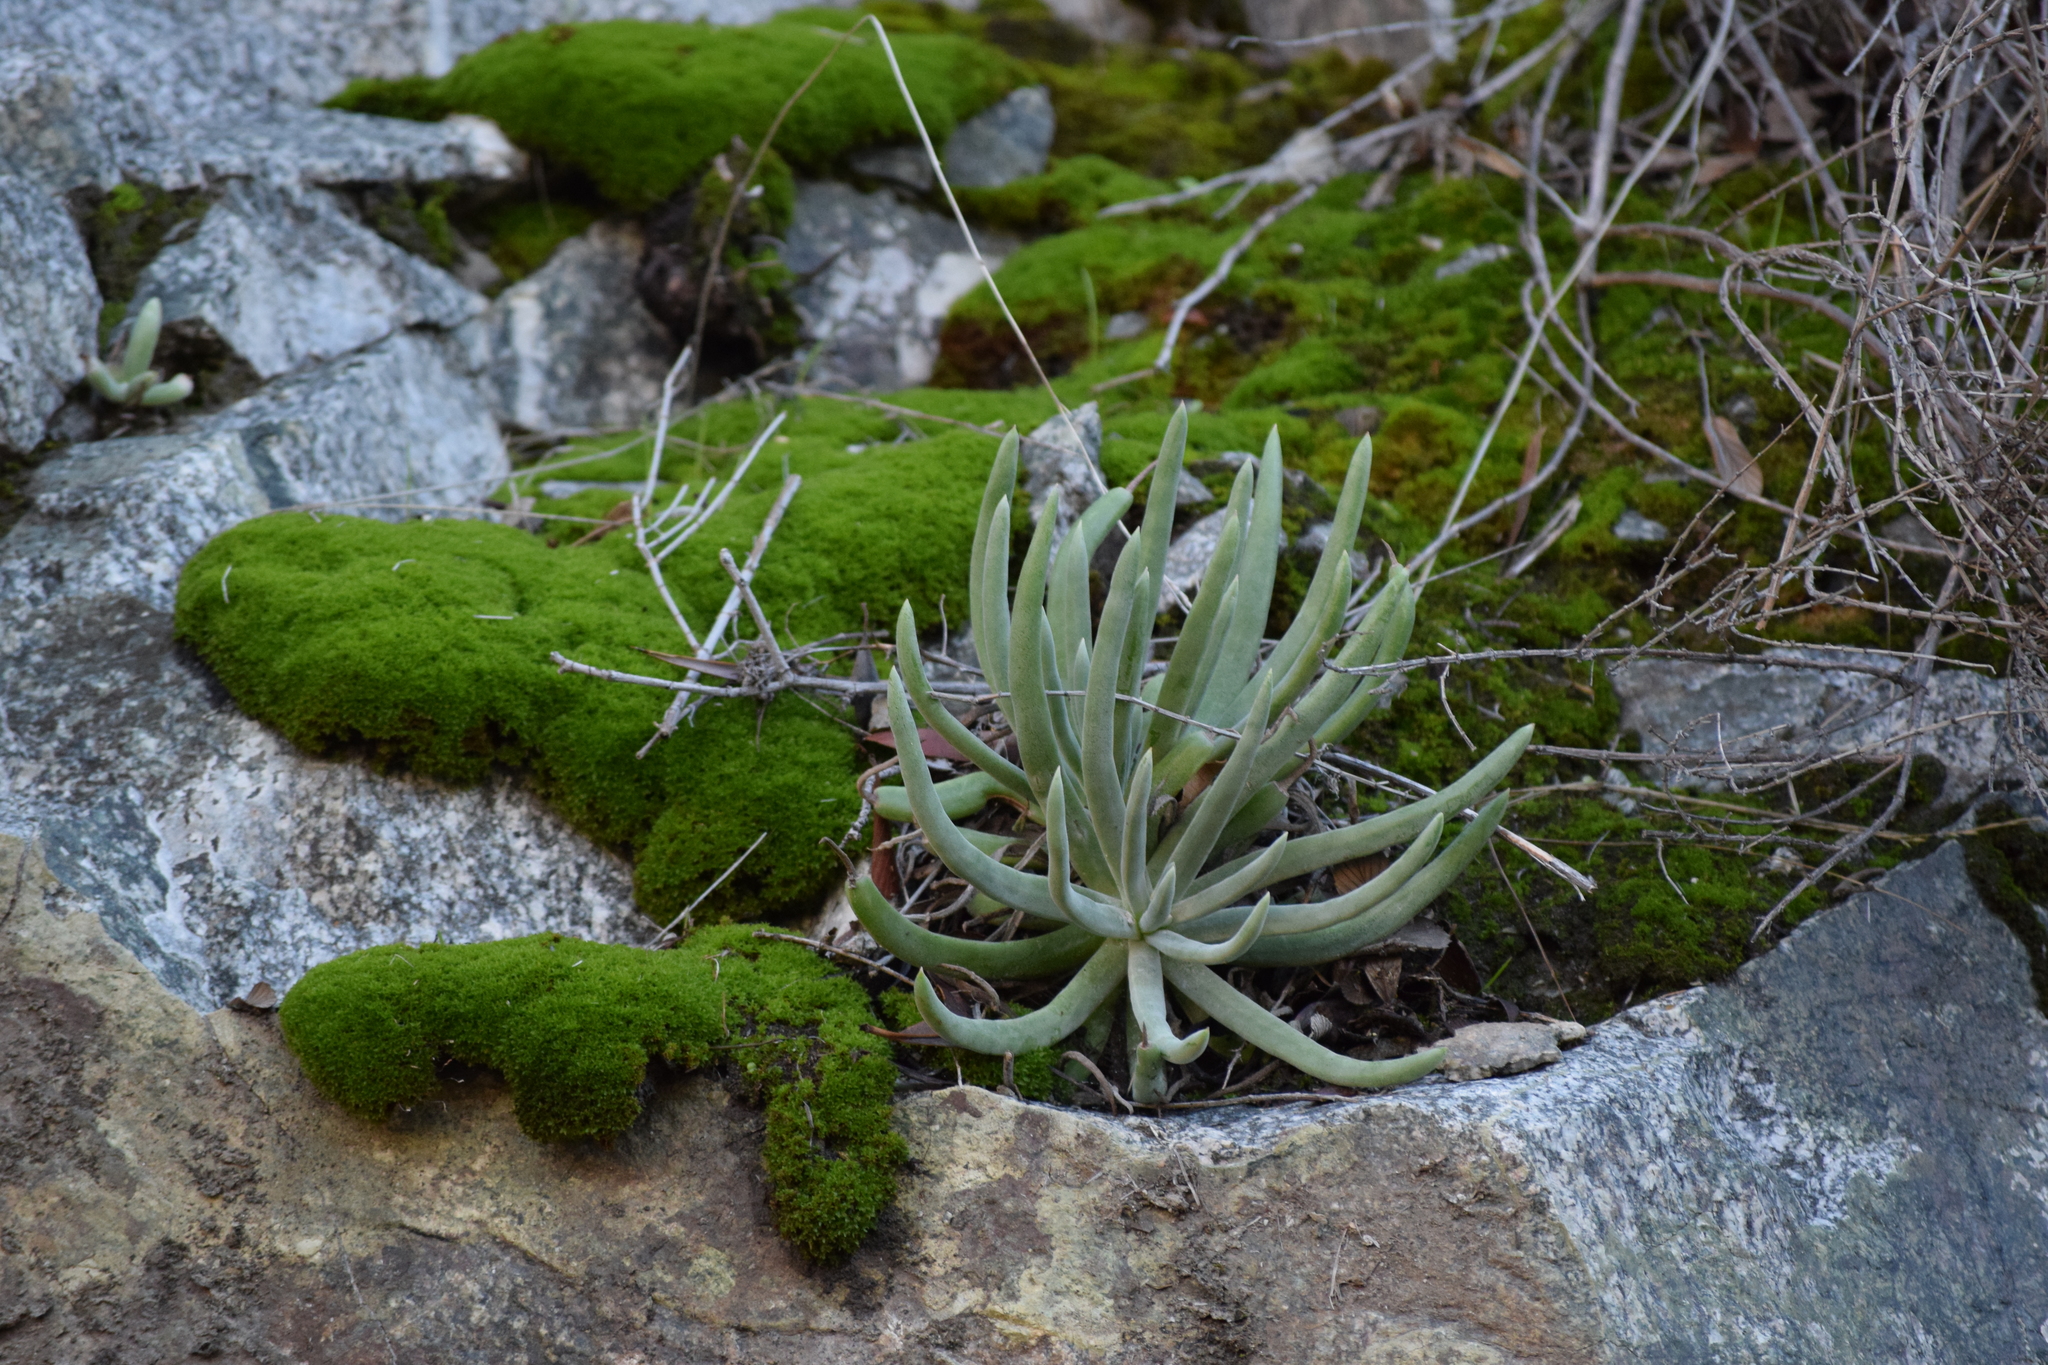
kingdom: Plantae
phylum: Tracheophyta
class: Magnoliopsida
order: Saxifragales
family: Crassulaceae
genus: Dudleya
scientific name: Dudleya densiflora
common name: San gabriel mountains dudleya
